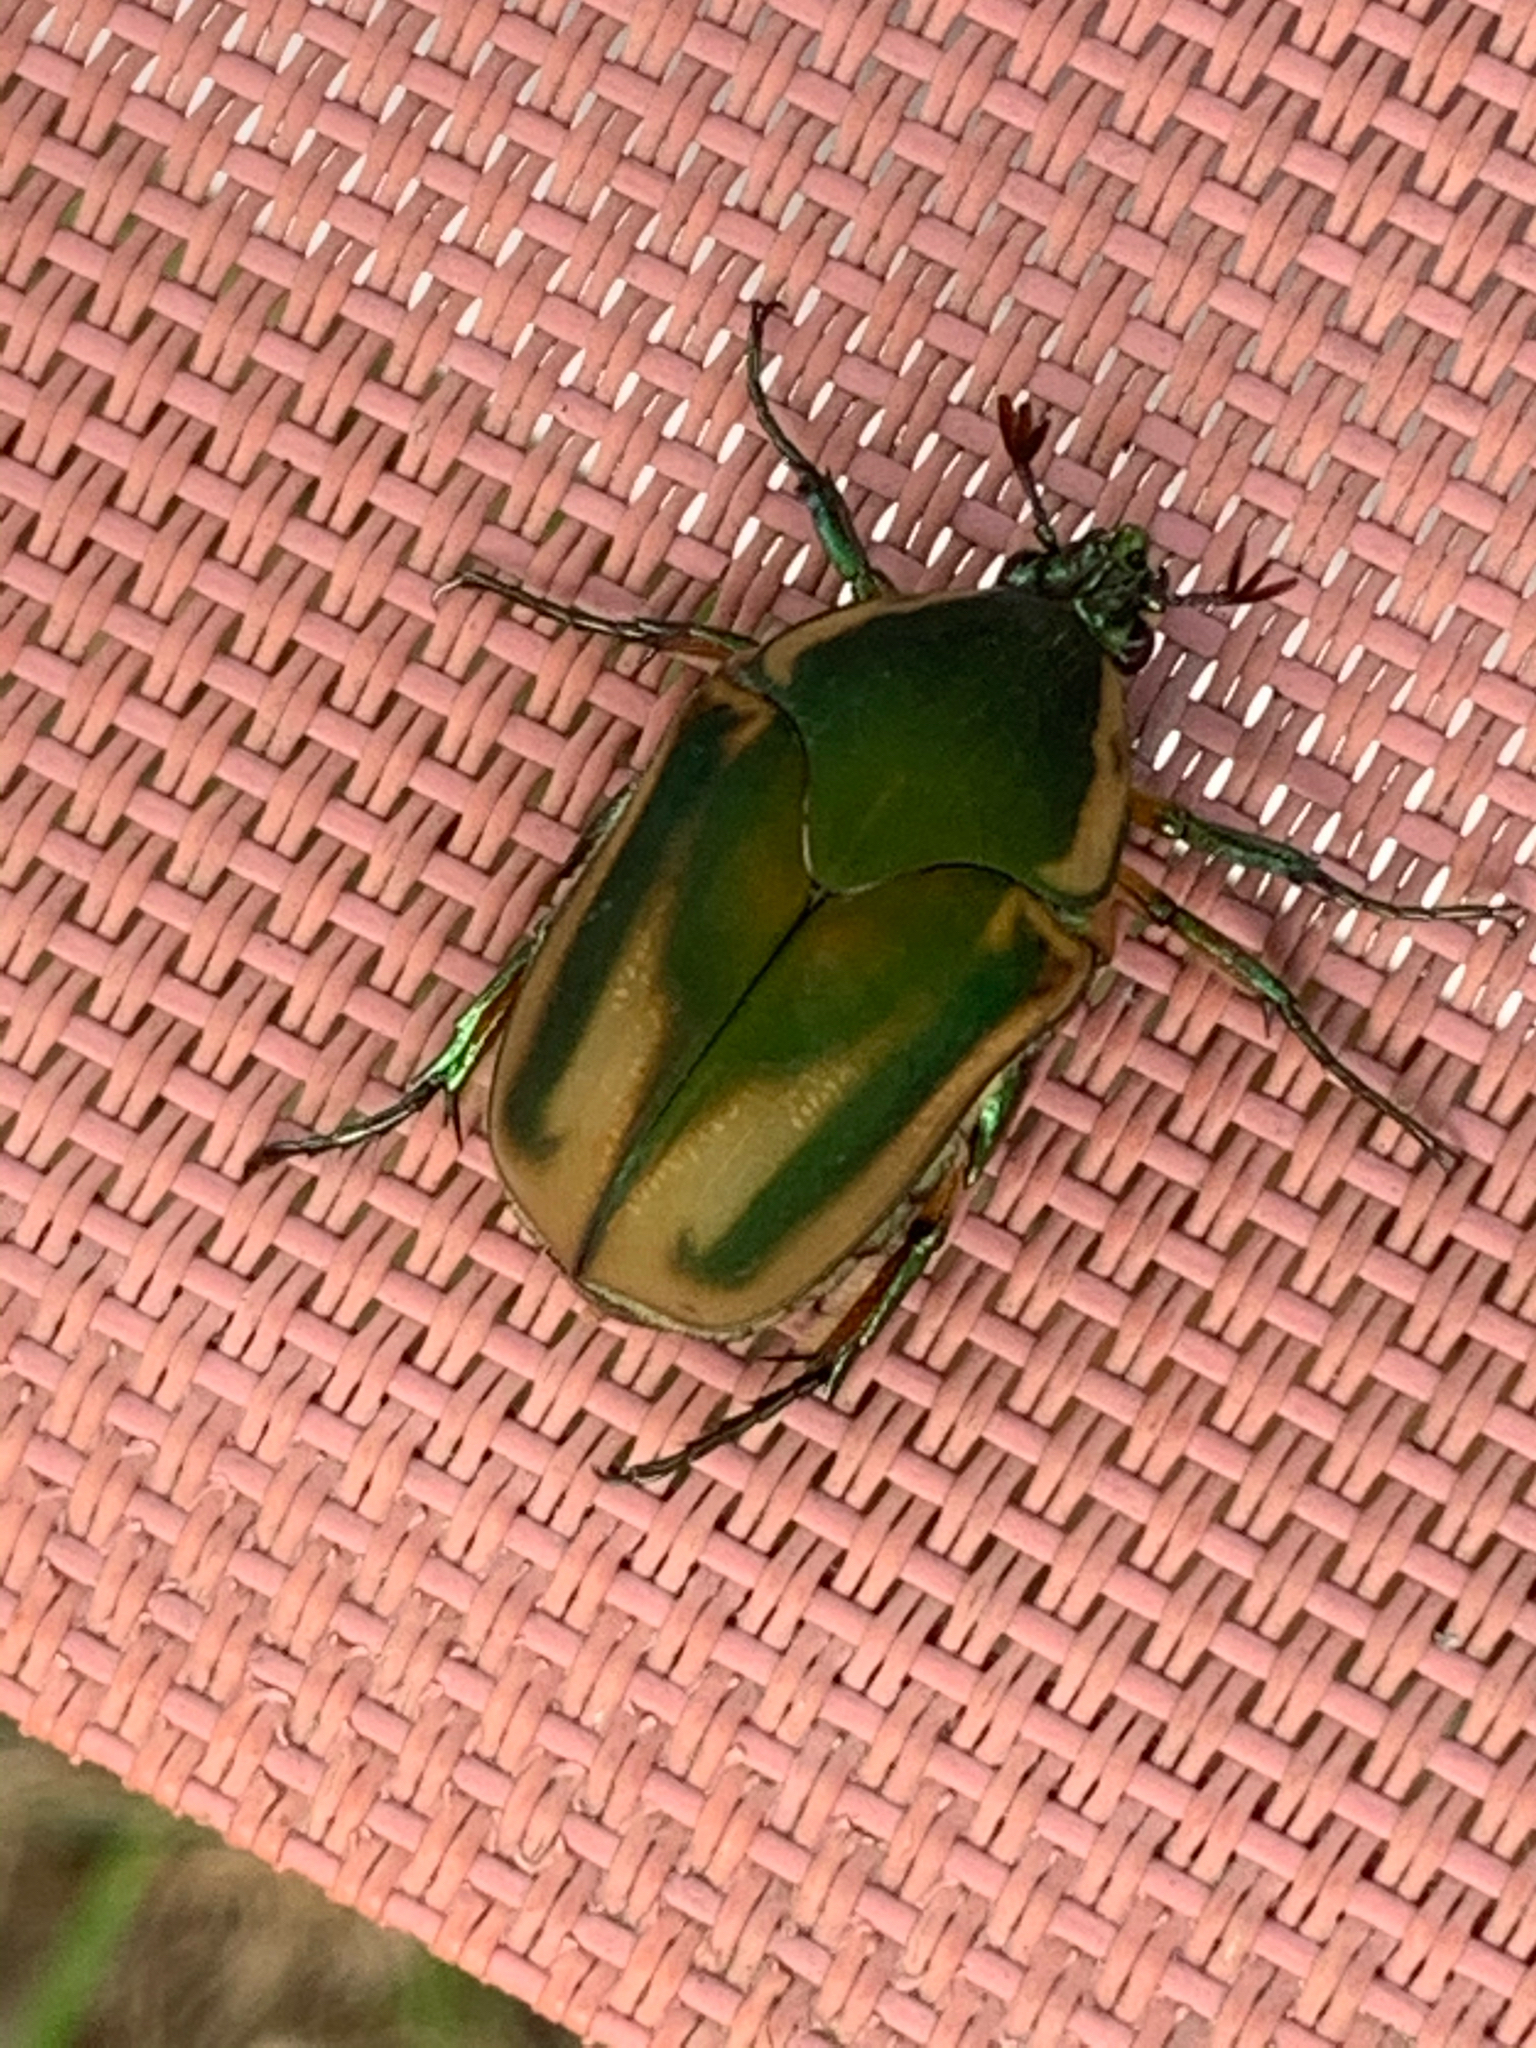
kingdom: Animalia
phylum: Arthropoda
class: Insecta
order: Coleoptera
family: Scarabaeidae
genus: Cotinis
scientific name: Cotinis nitida
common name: Common green june beetle
